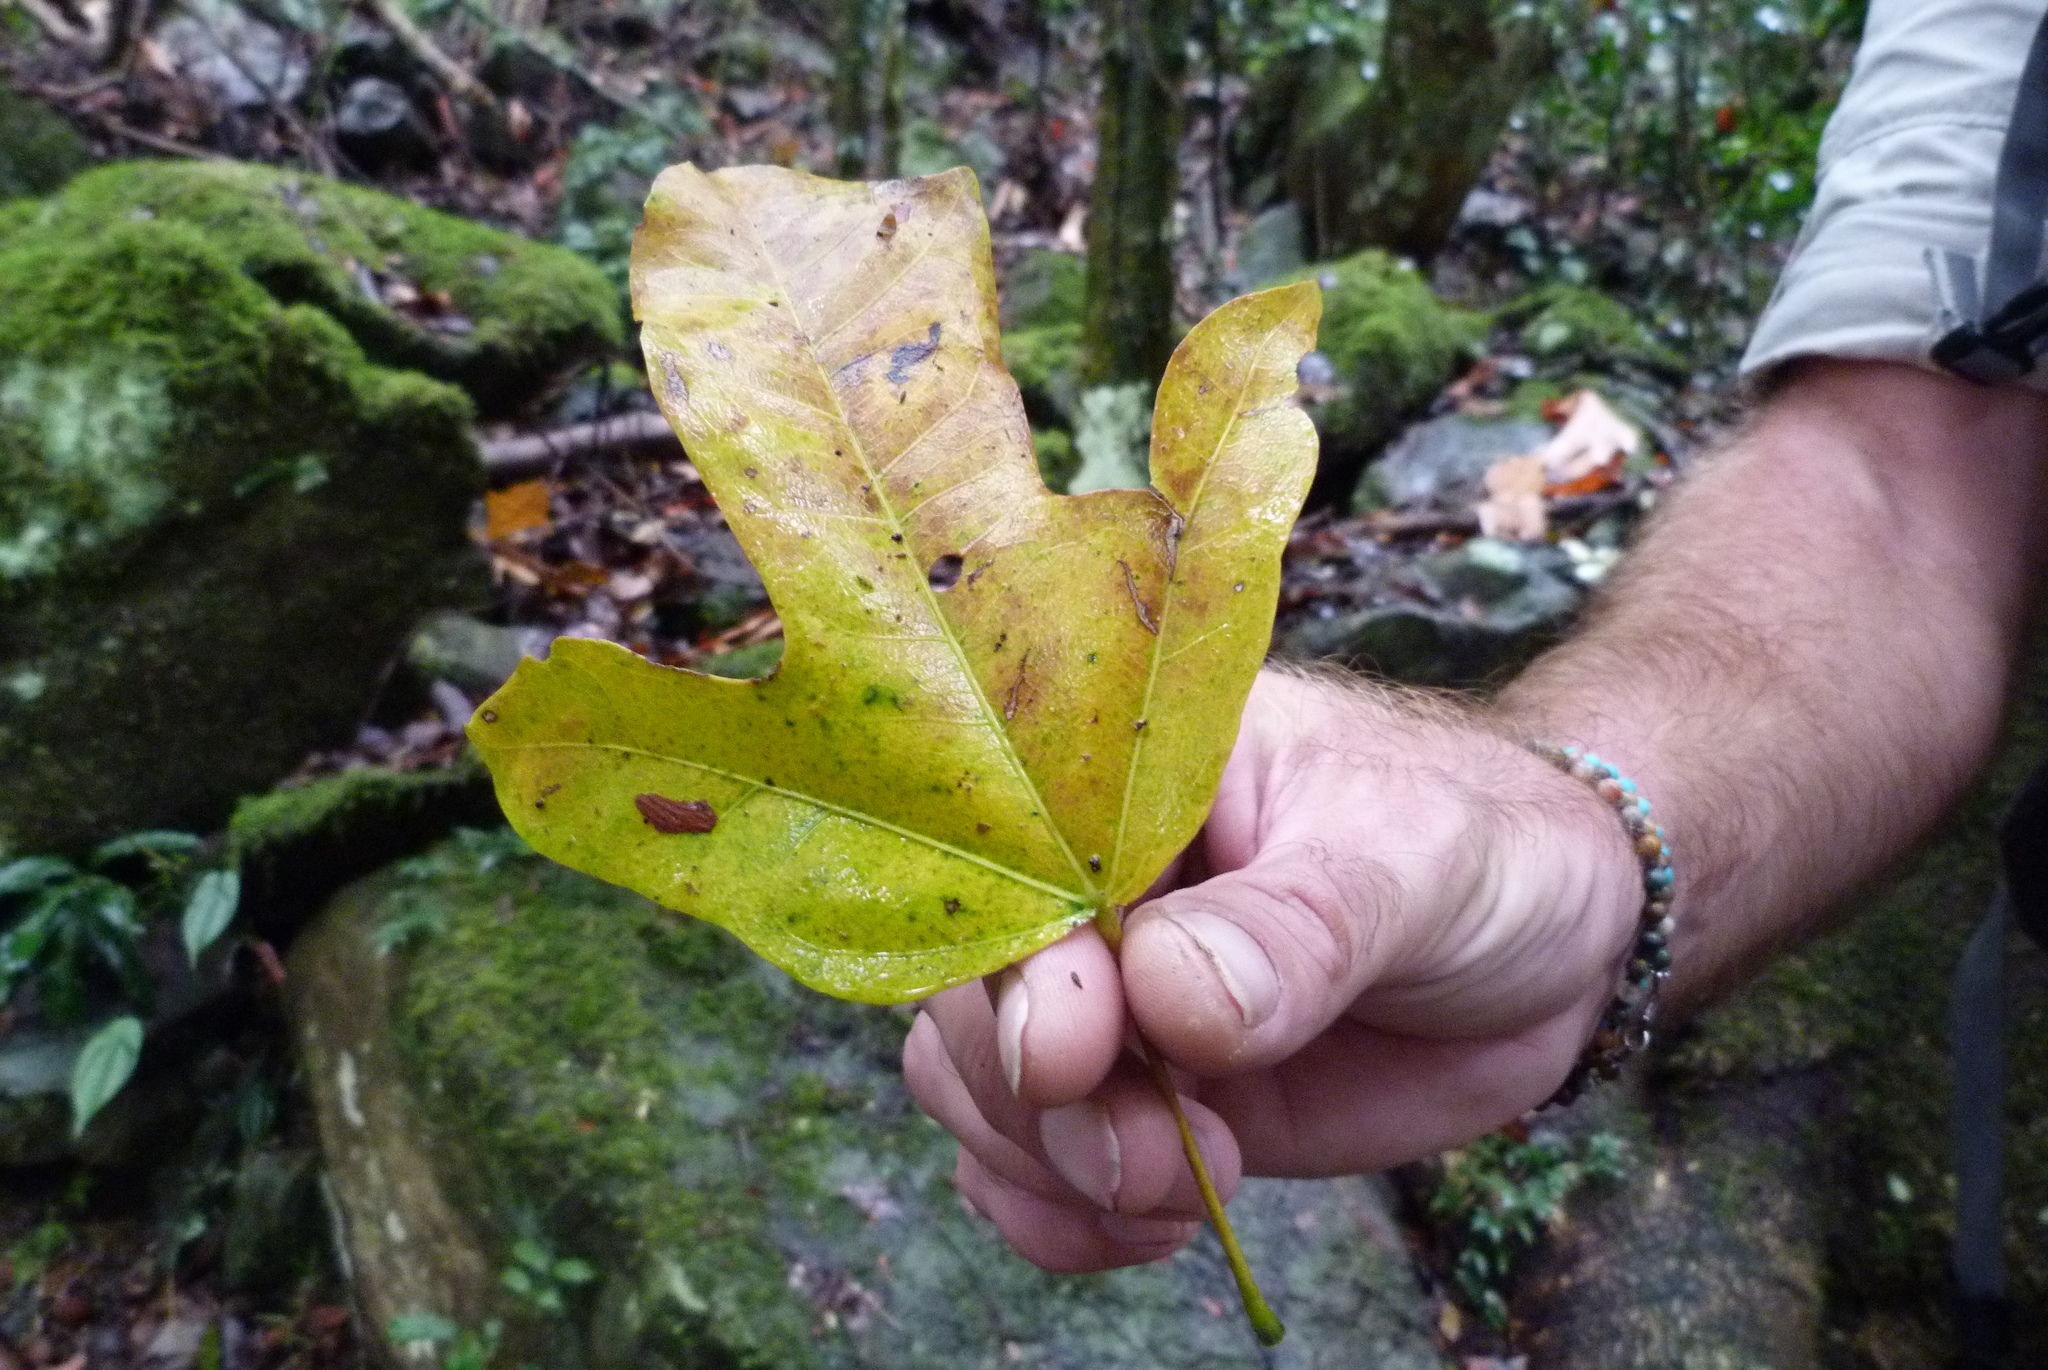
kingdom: Plantae
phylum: Tracheophyta
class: Magnoliopsida
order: Malvales
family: Malvaceae
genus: Brachychiton
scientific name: Brachychiton acerifolius
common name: Illawarra flame tree
